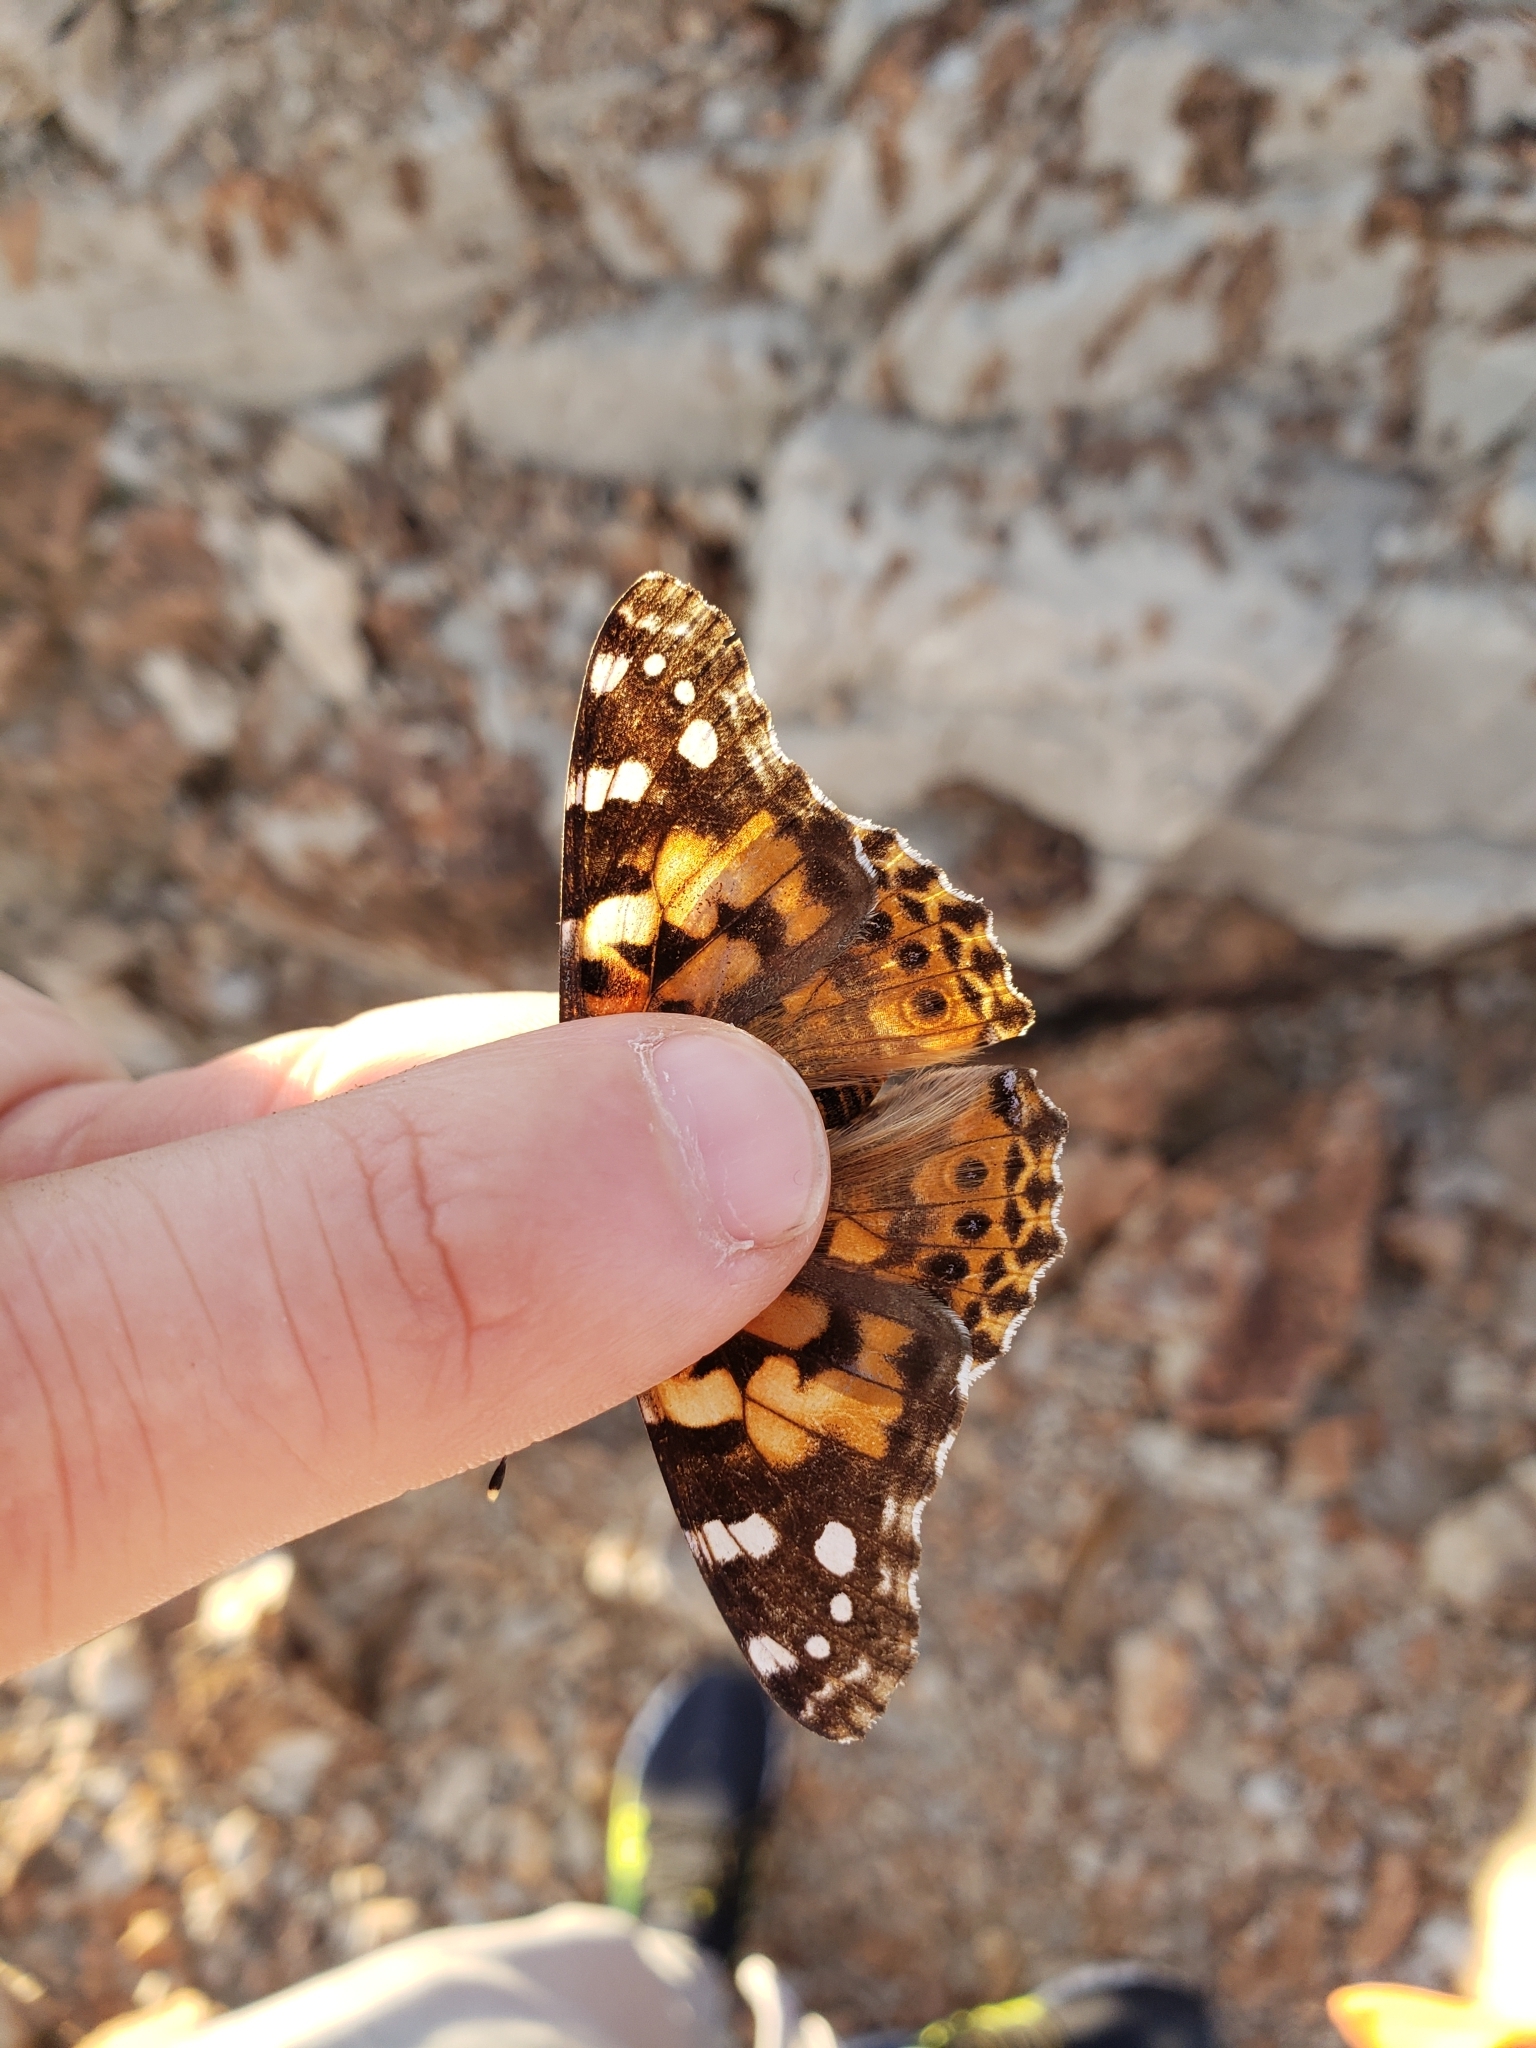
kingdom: Animalia
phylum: Arthropoda
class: Insecta
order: Lepidoptera
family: Nymphalidae
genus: Vanessa
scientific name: Vanessa cardui
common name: Painted lady
